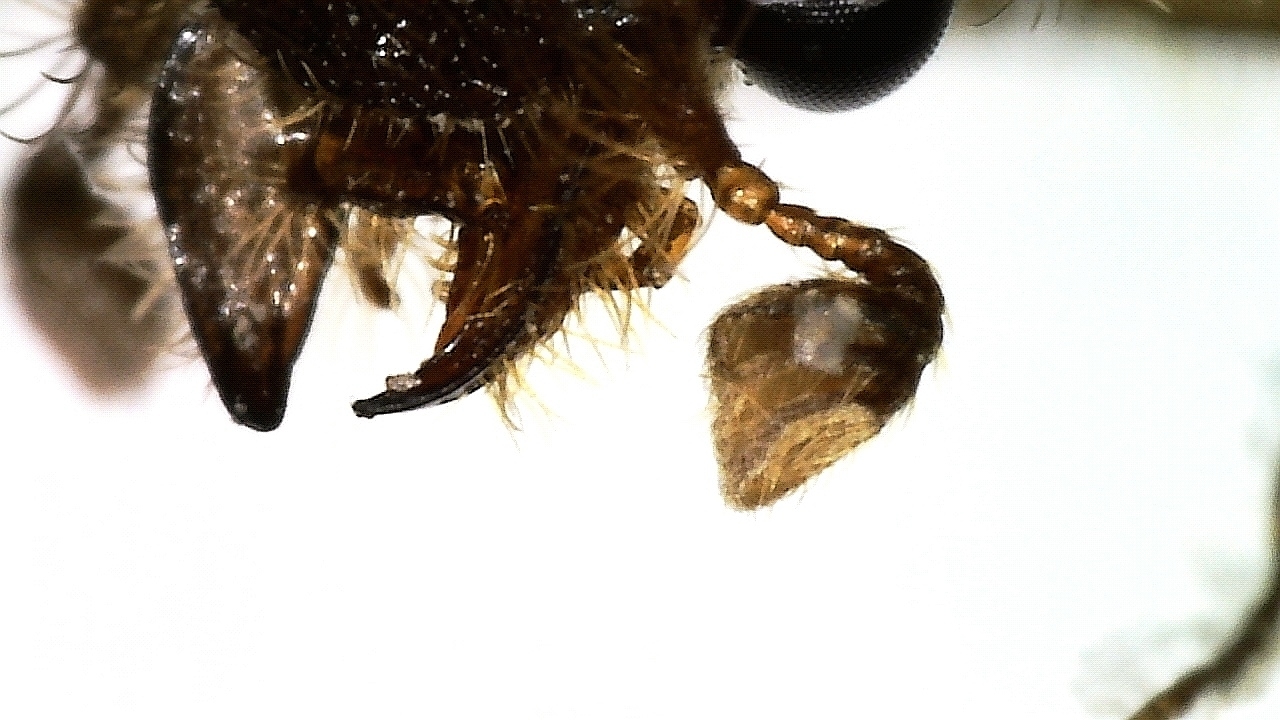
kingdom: Animalia
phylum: Arthropoda
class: Insecta
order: Coleoptera
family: Ochodaeidae
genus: Codocera
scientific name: Codocera ferruginea
